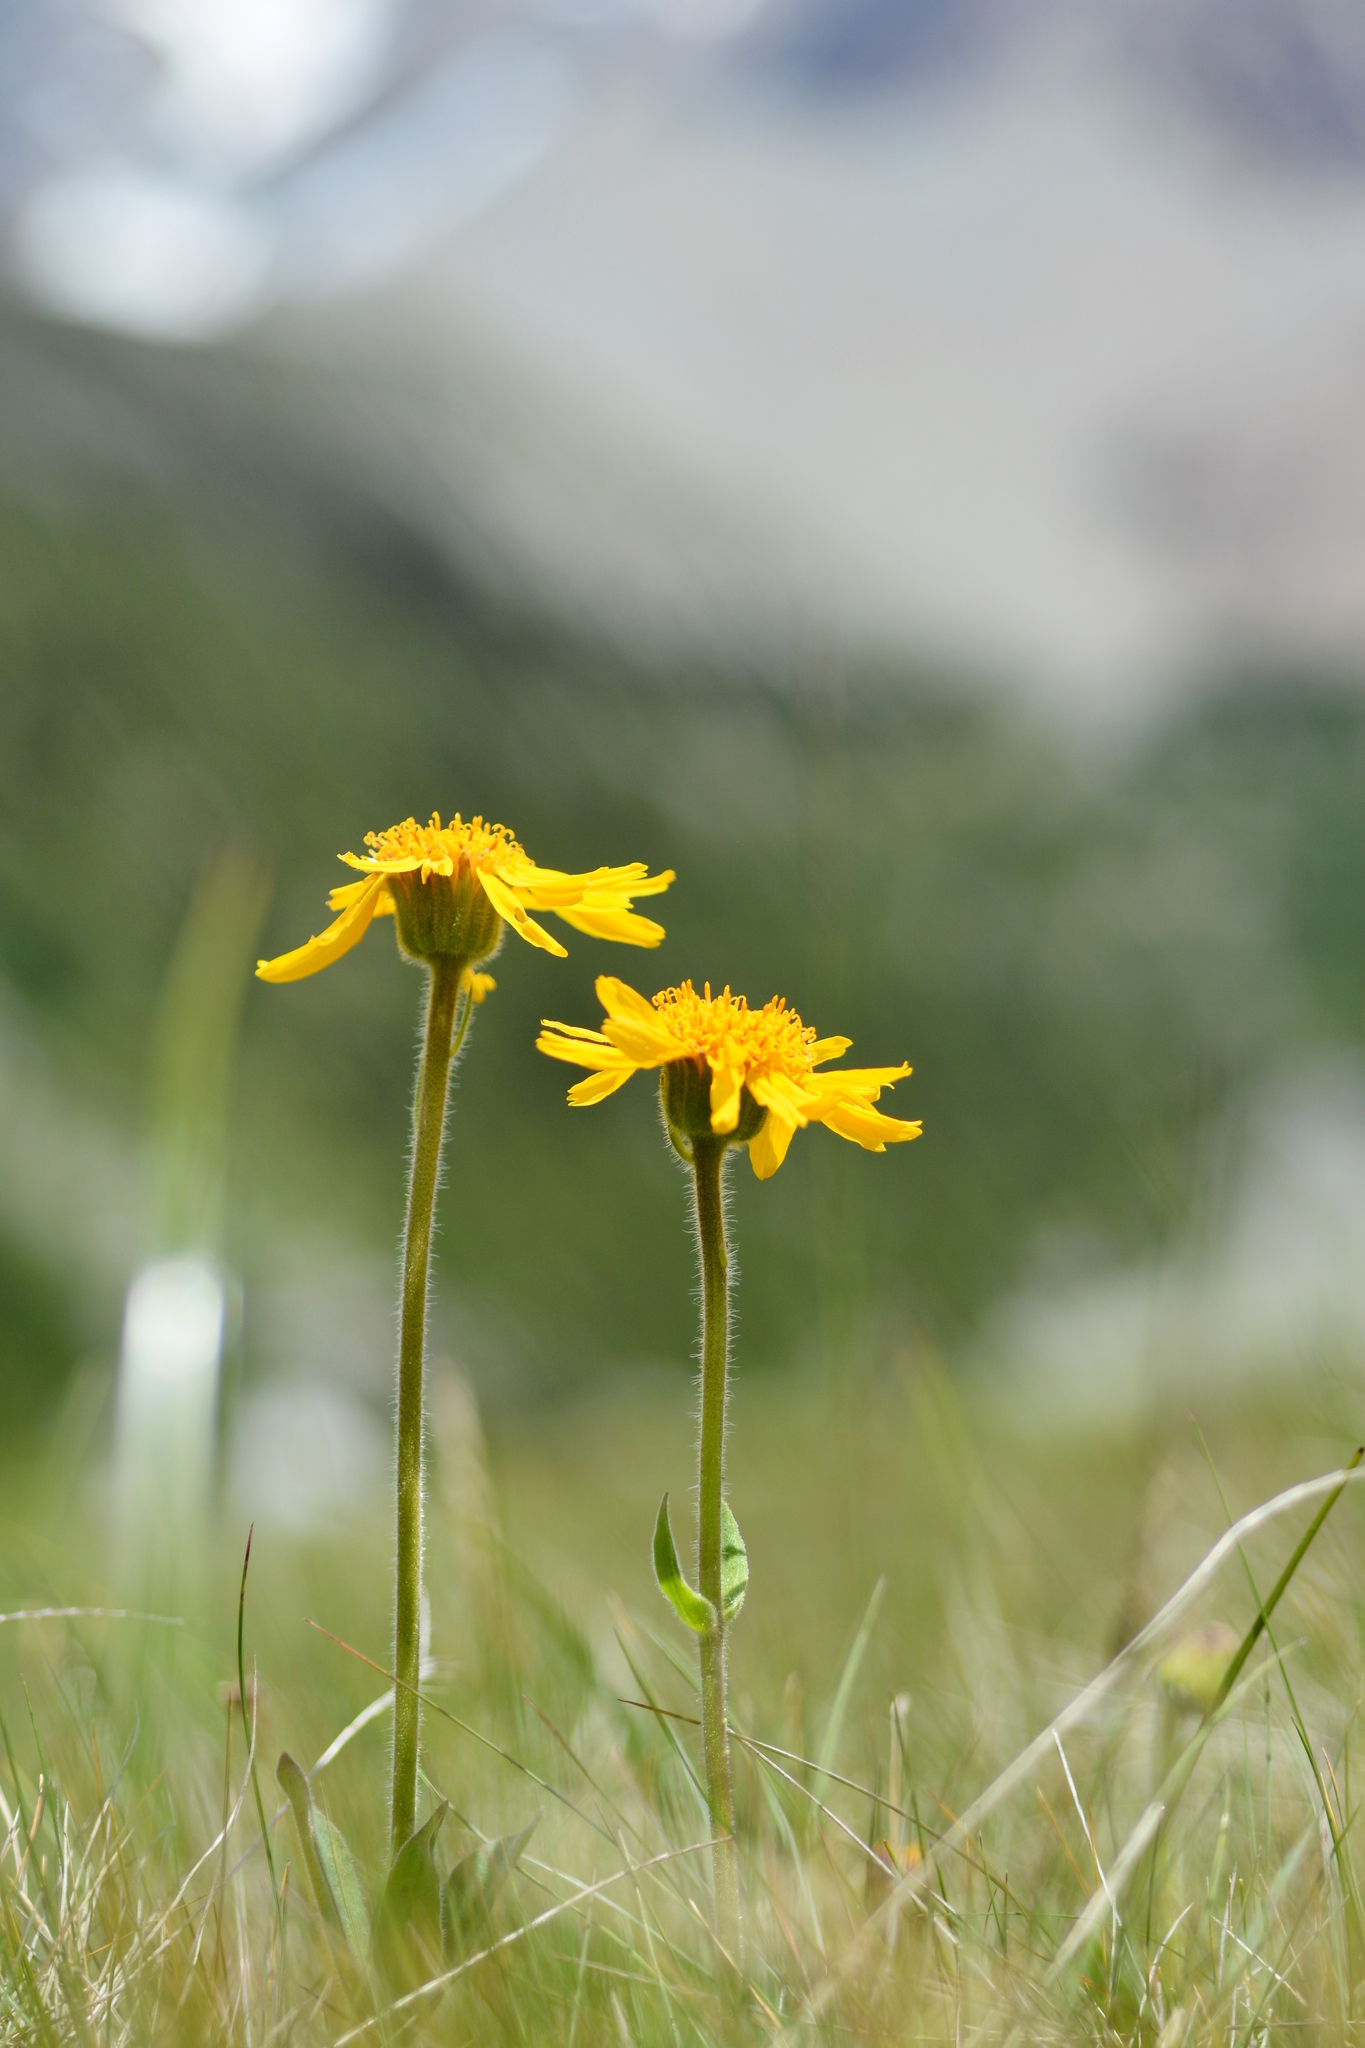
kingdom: Plantae
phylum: Tracheophyta
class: Magnoliopsida
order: Asterales
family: Asteraceae
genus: Arnica
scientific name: Arnica montana
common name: Leopard's bane
